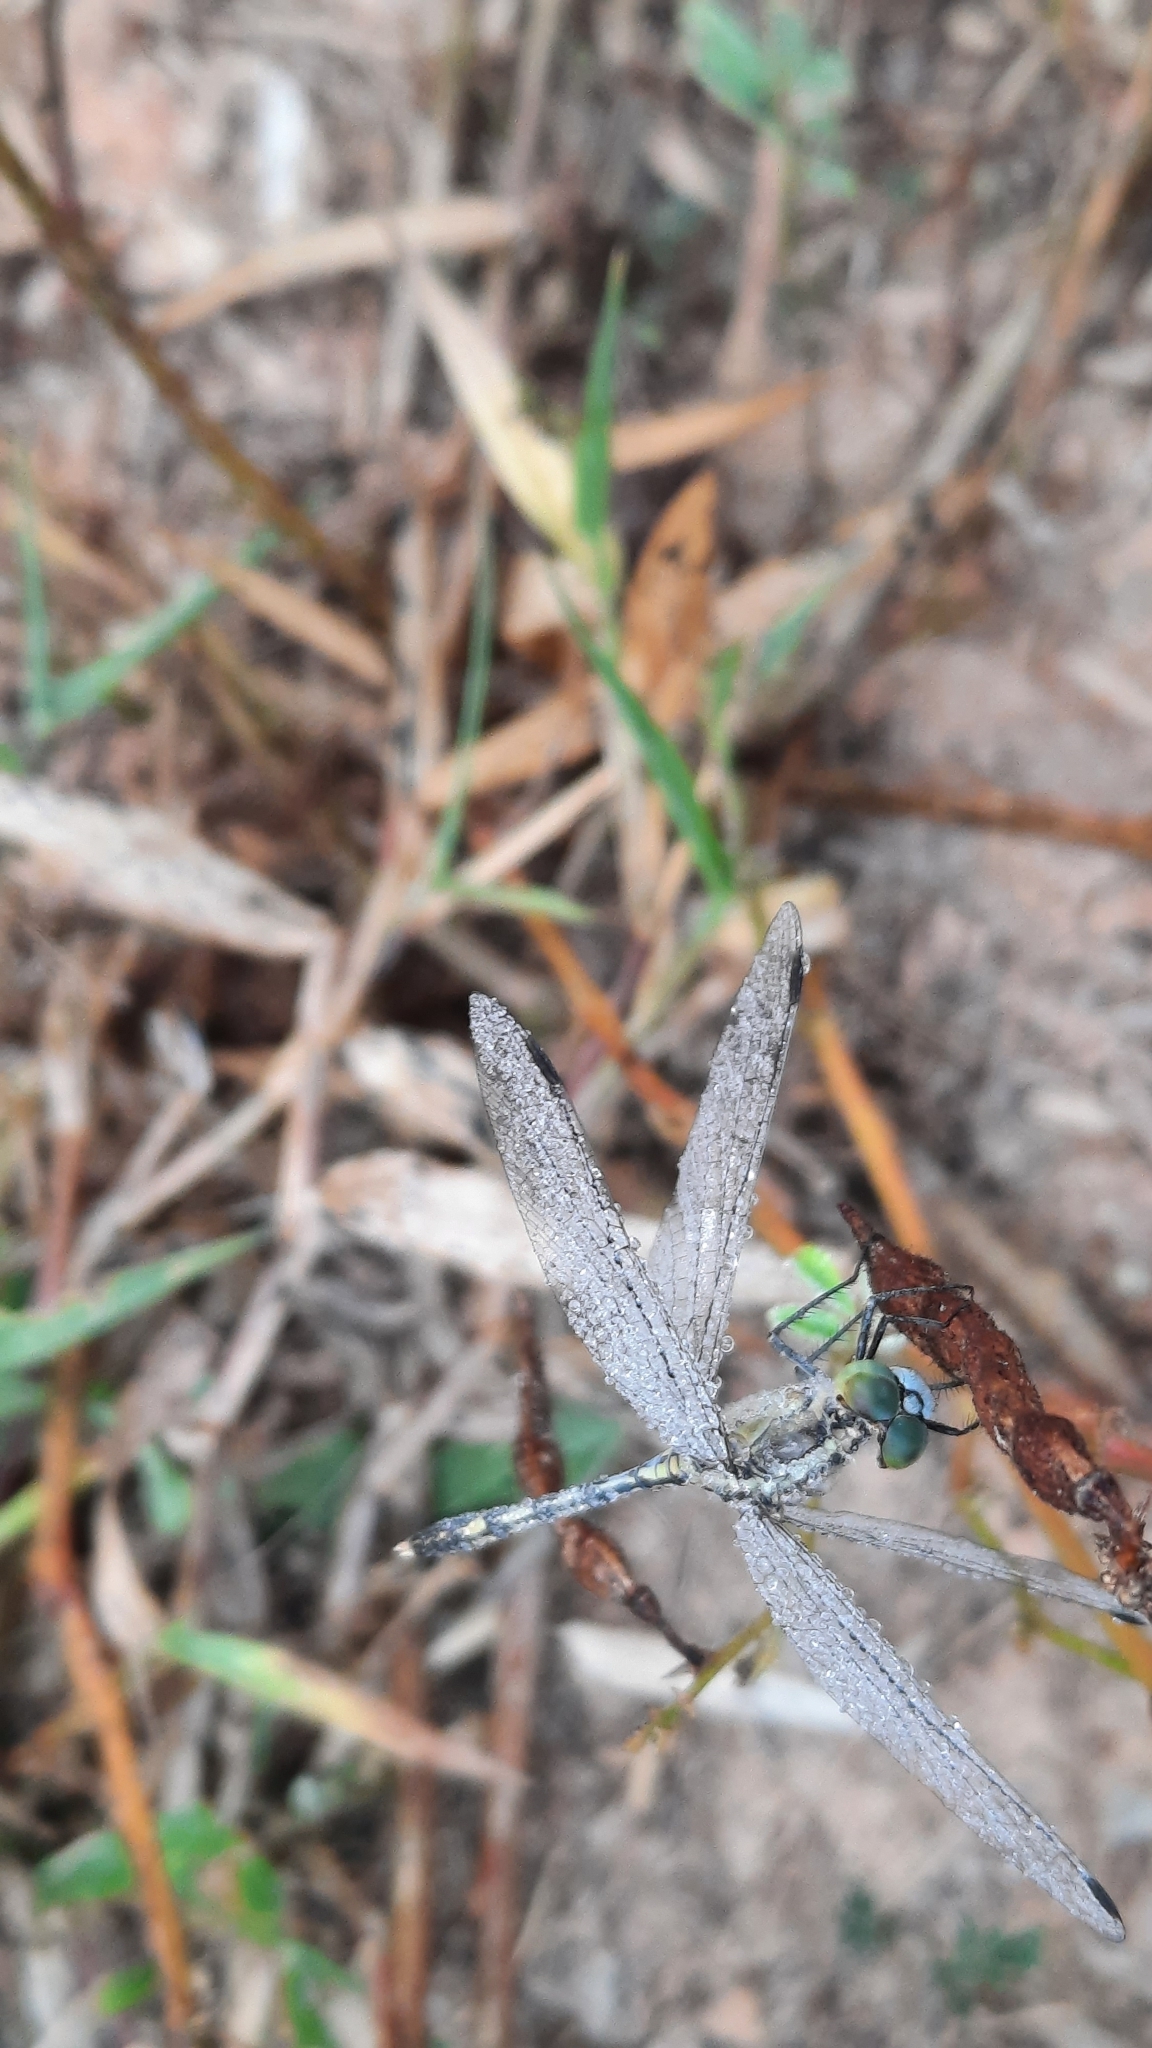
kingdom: Animalia
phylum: Arthropoda
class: Insecta
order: Odonata
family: Libellulidae
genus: Diplacodes
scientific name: Diplacodes trivialis
